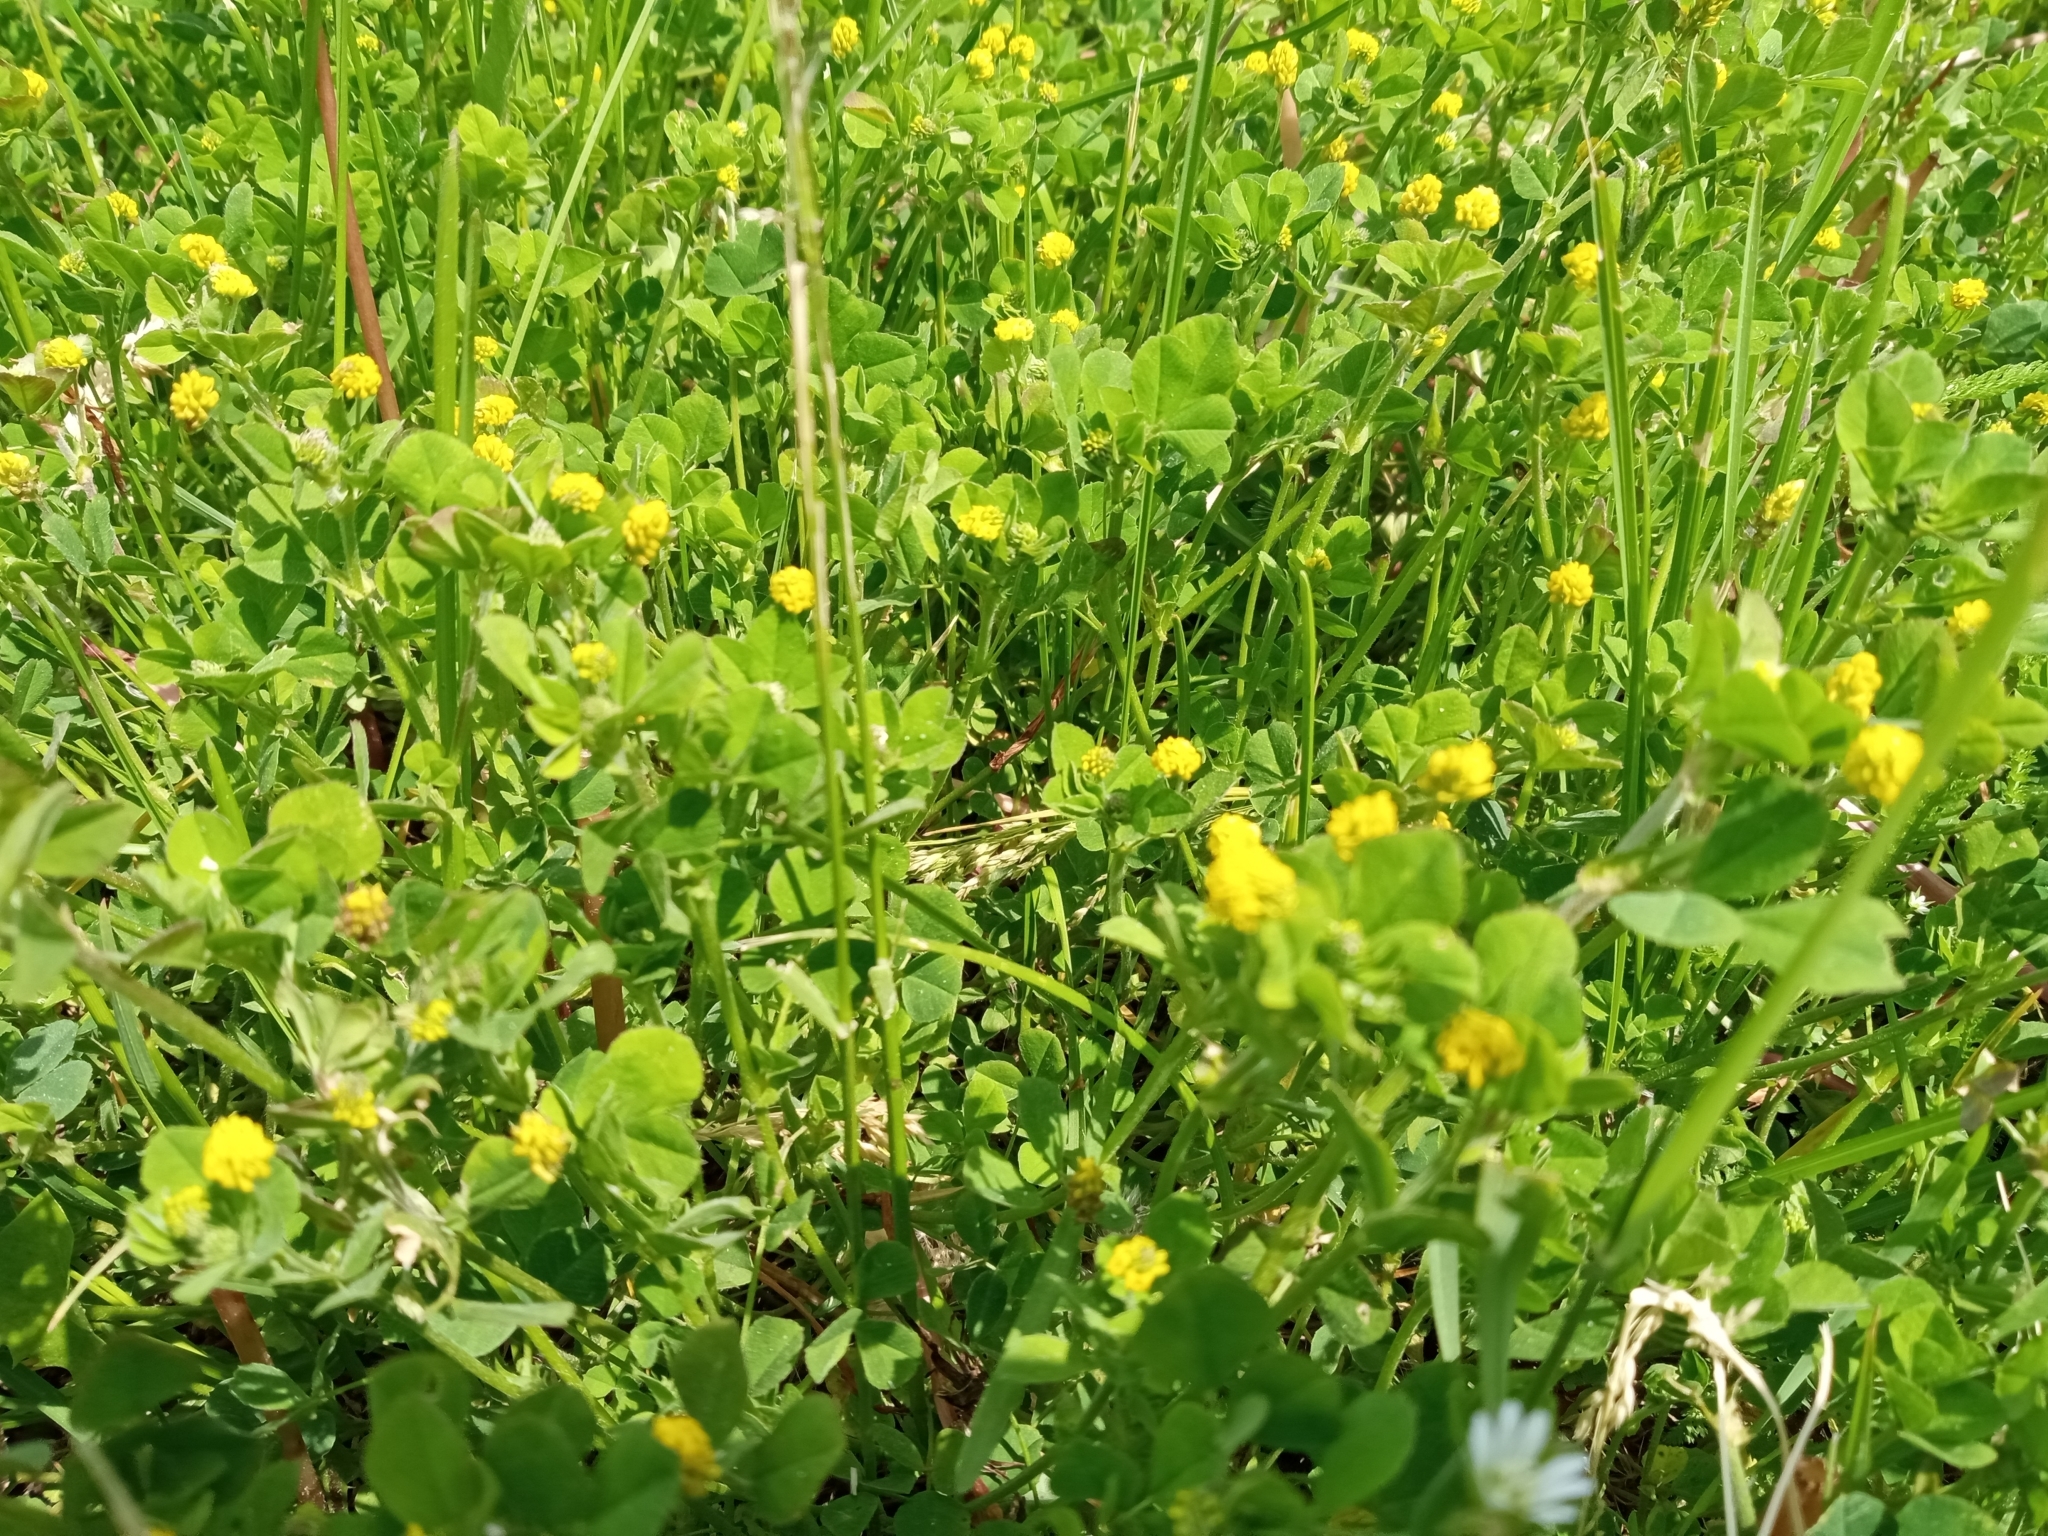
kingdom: Plantae
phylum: Tracheophyta
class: Magnoliopsida
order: Fabales
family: Fabaceae
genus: Medicago
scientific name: Medicago lupulina
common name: Black medick
